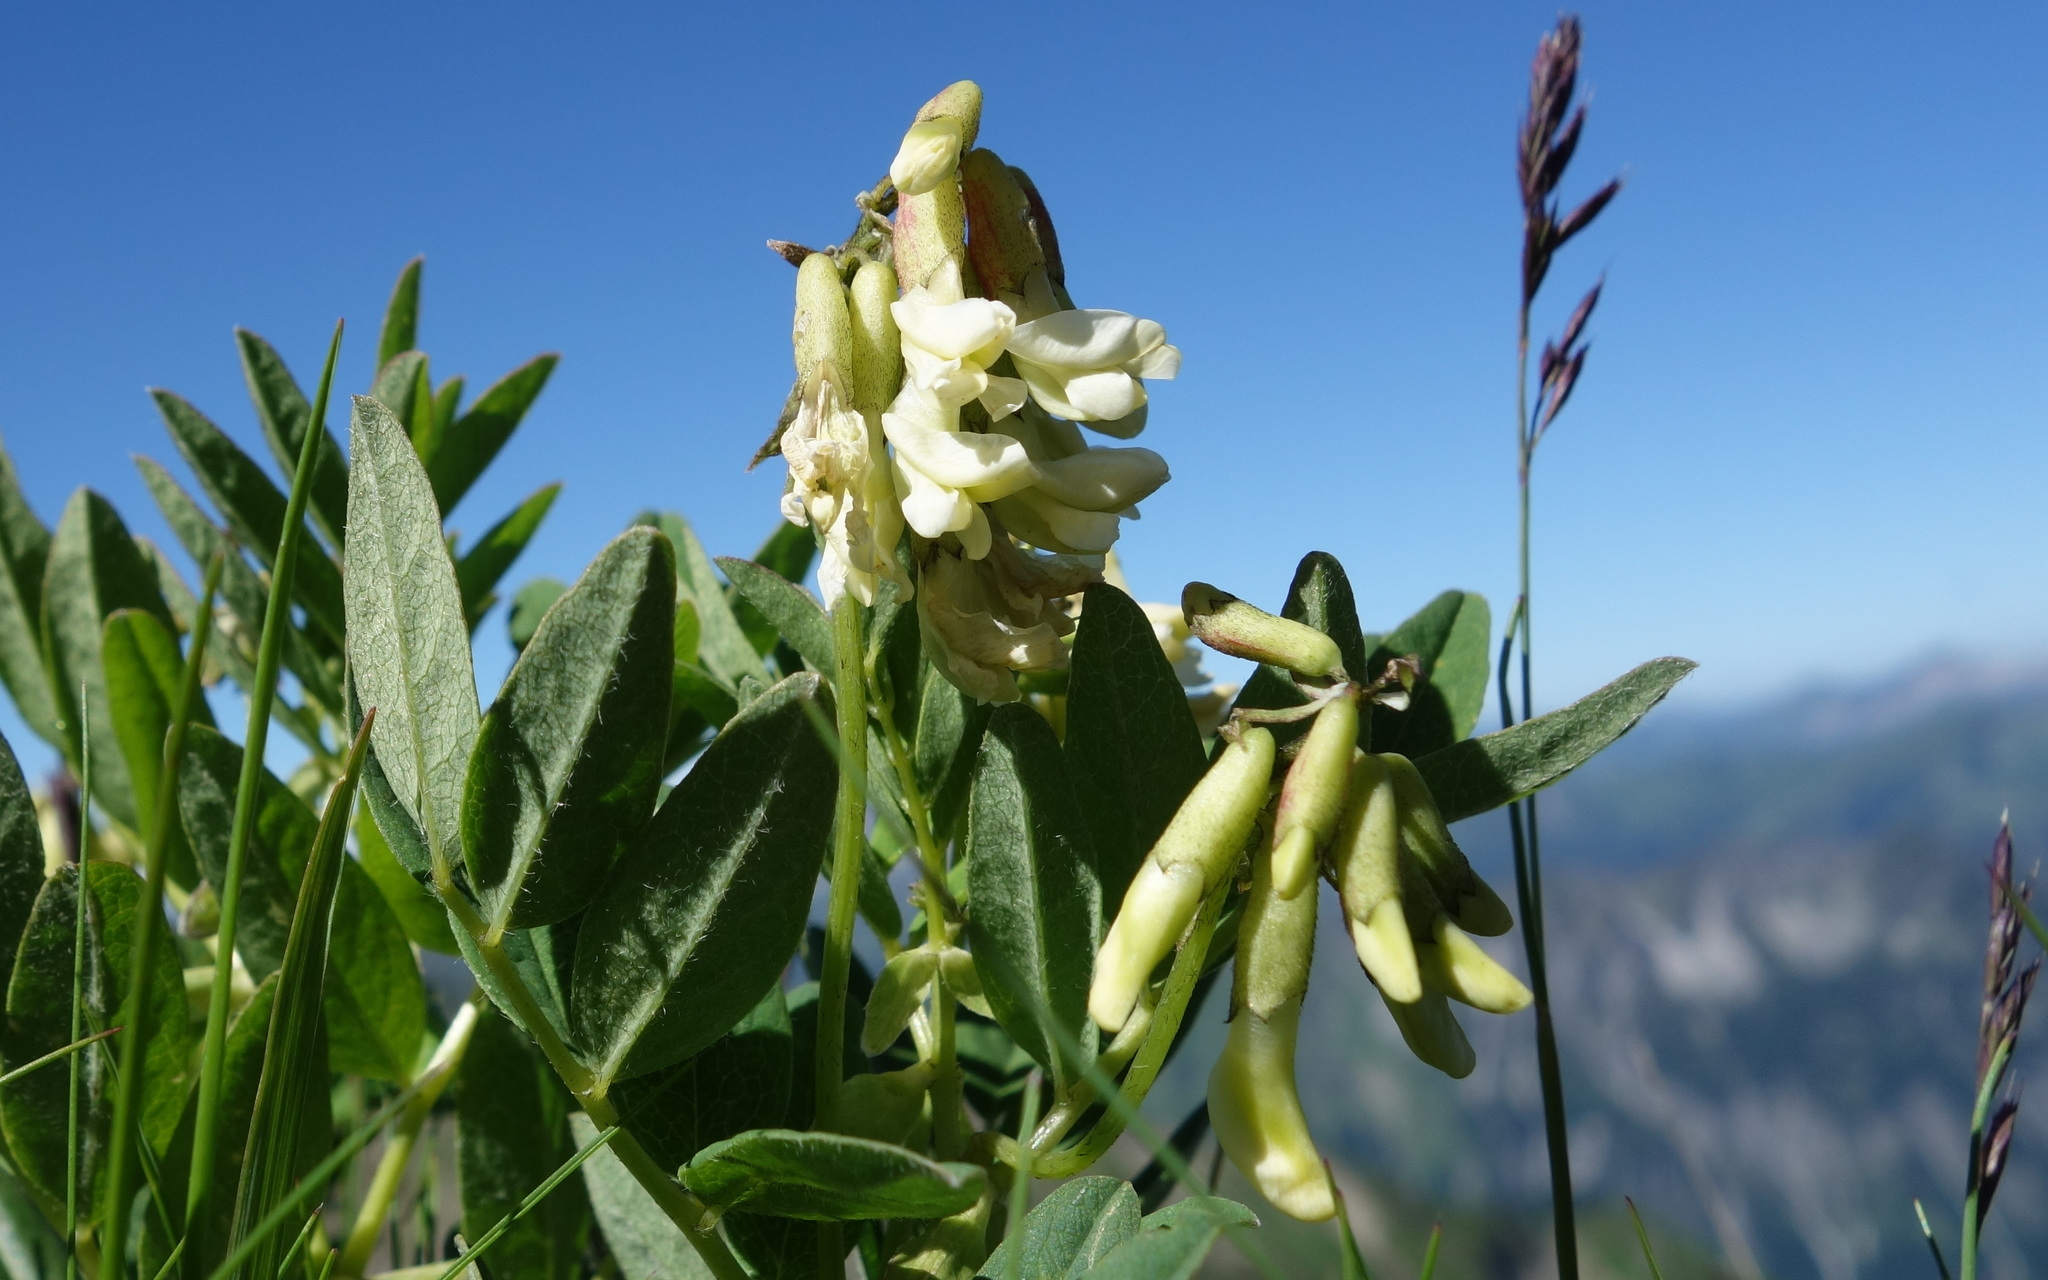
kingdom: Plantae
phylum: Tracheophyta
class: Magnoliopsida
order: Fabales
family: Fabaceae
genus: Astragalus
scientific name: Astragalus frigidus
